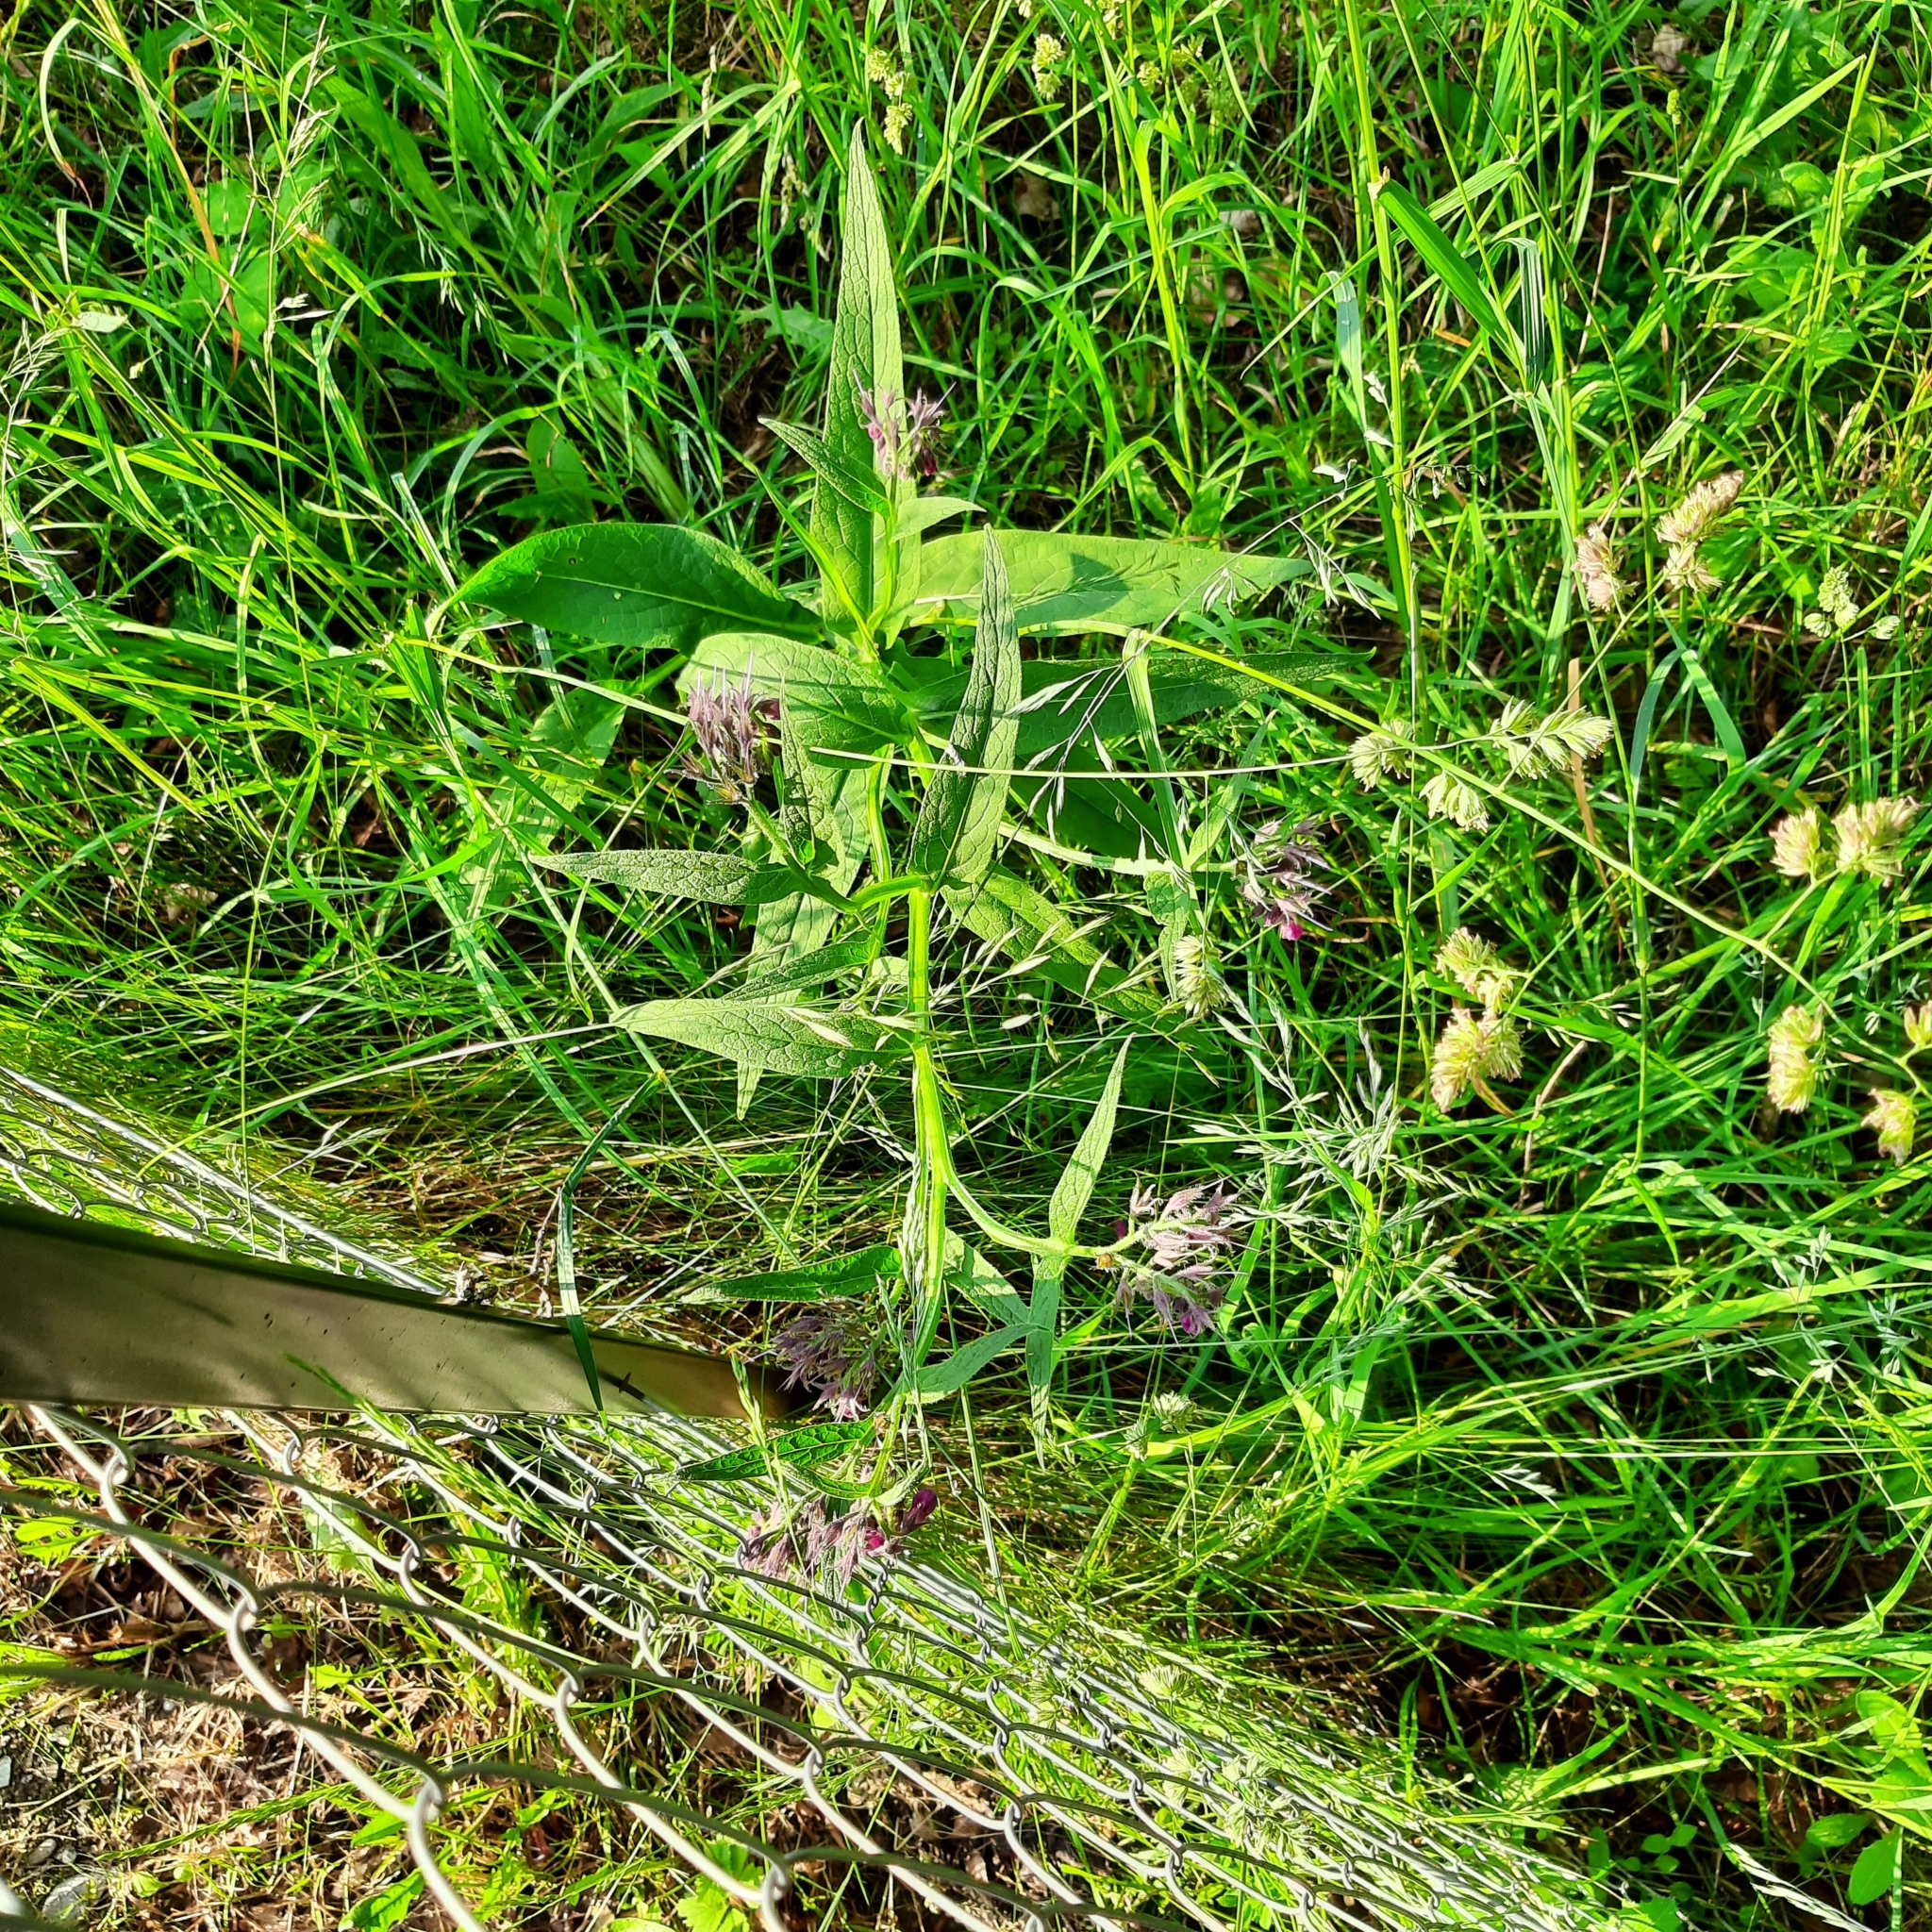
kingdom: Plantae
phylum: Tracheophyta
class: Magnoliopsida
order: Boraginales
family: Boraginaceae
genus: Symphytum
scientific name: Symphytum officinale
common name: Common comfrey
